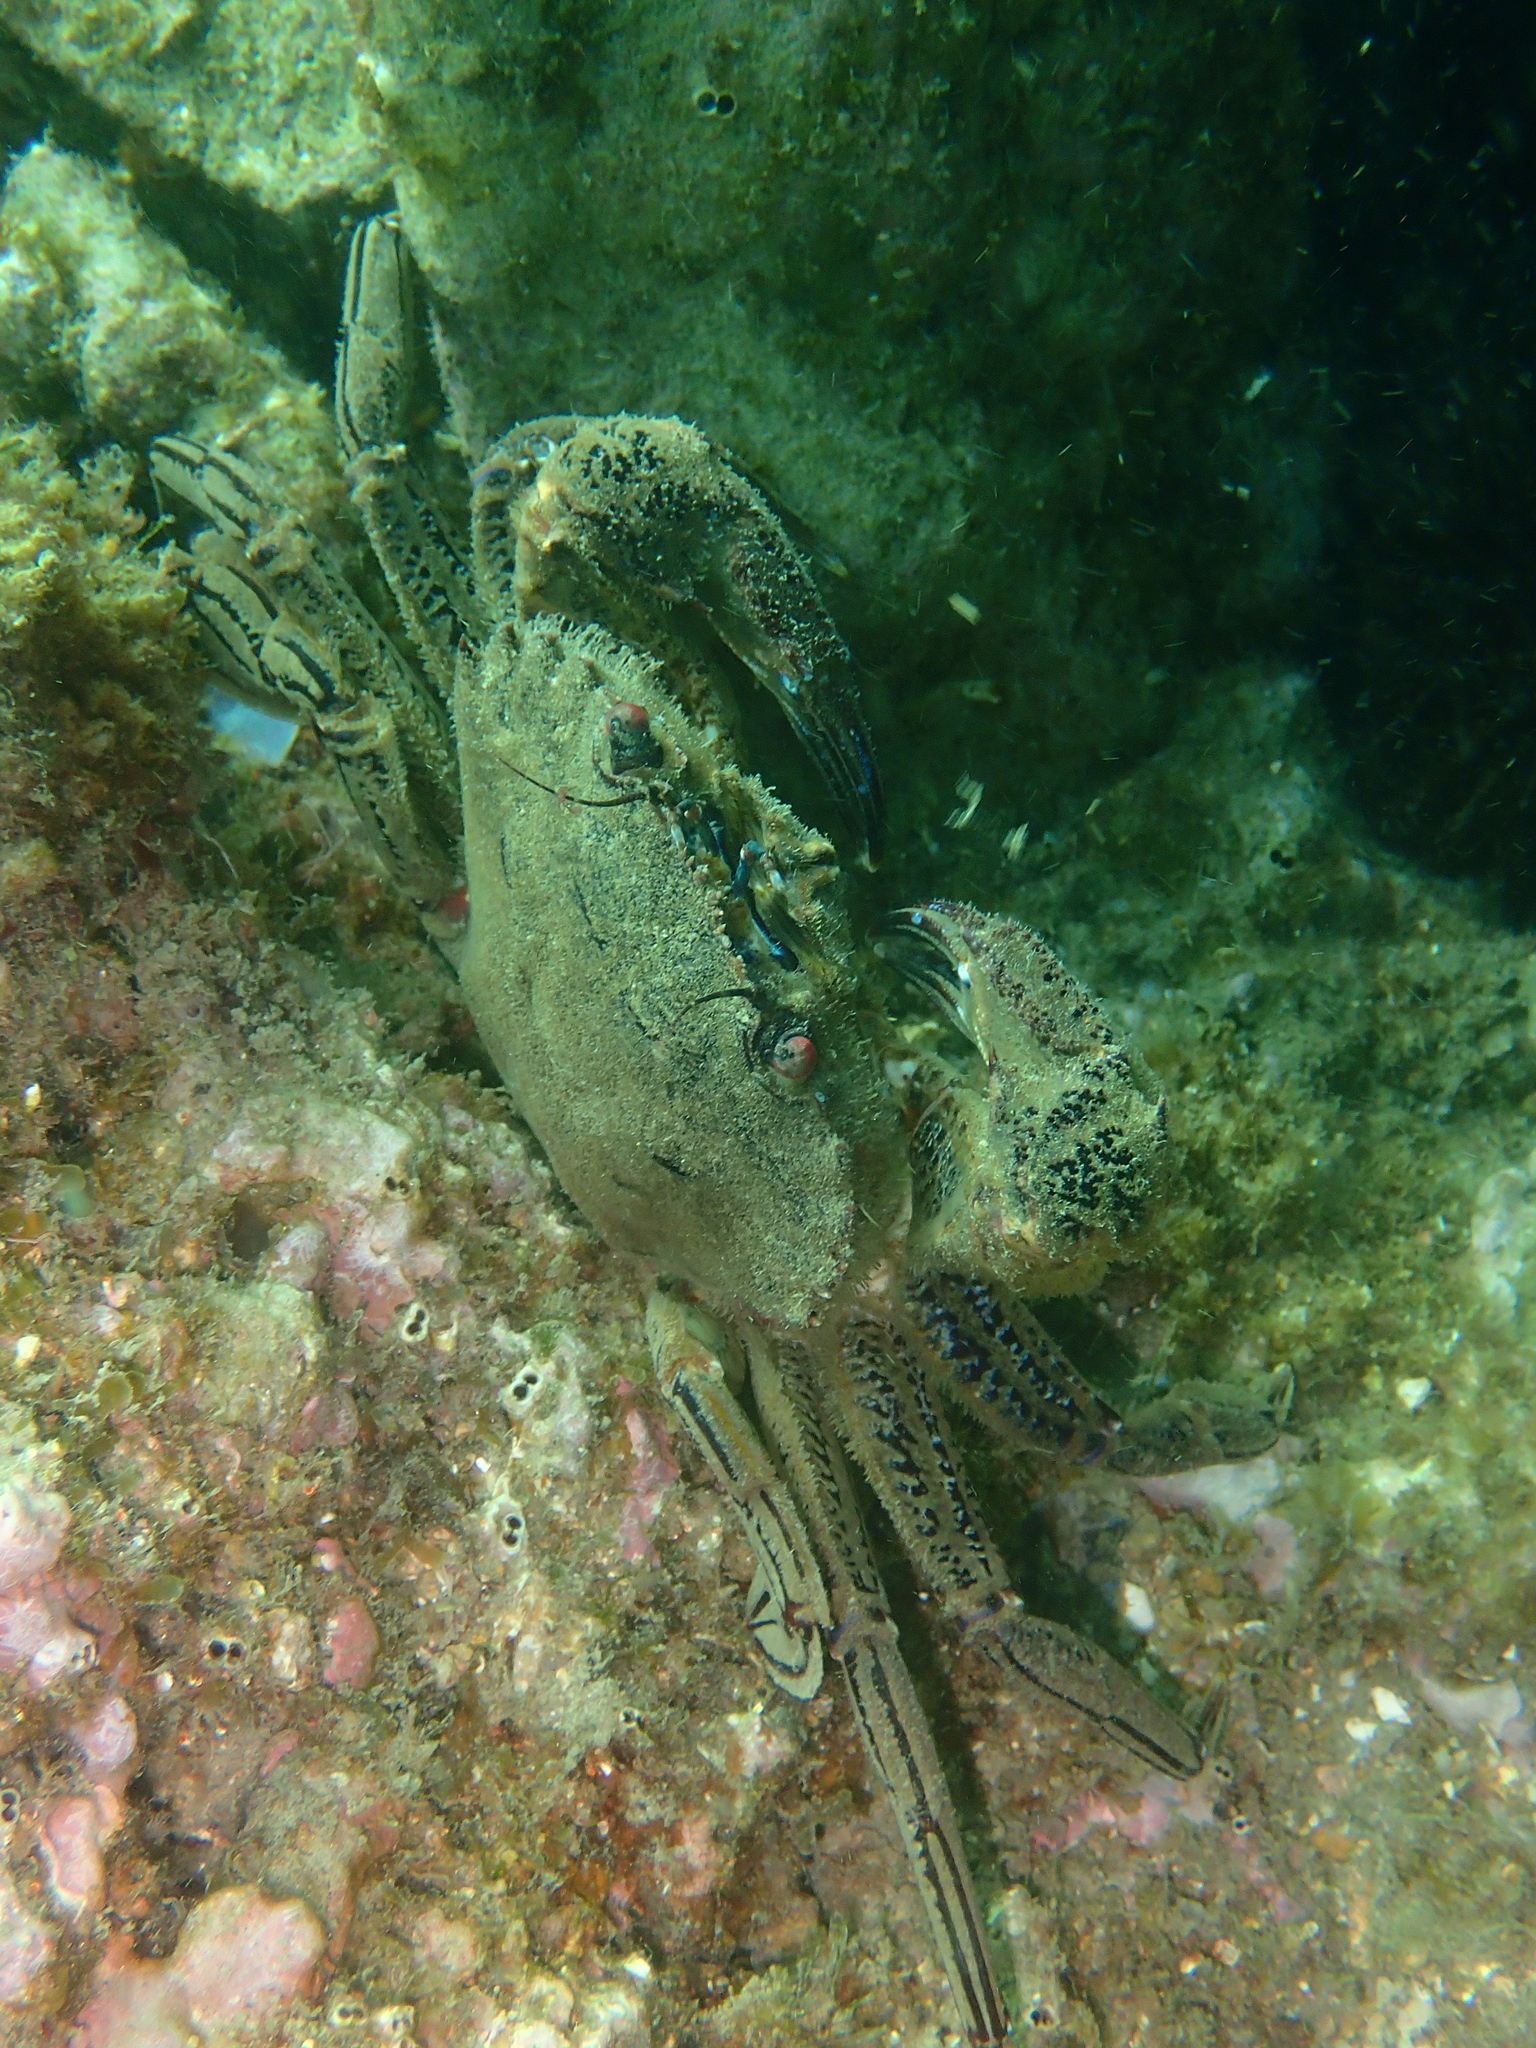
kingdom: Animalia
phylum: Arthropoda
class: Malacostraca
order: Decapoda
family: Polybiidae
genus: Necora
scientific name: Necora puber
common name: Velvet swimming crab
